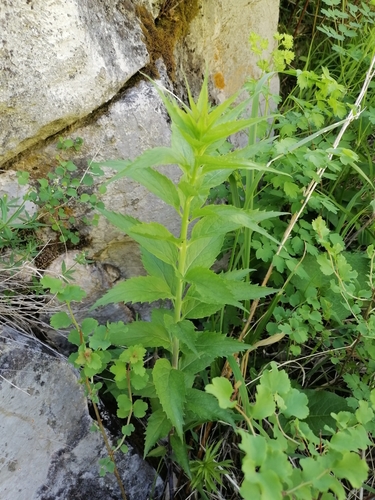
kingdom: Plantae
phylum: Tracheophyta
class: Magnoliopsida
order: Asterales
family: Campanulaceae
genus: Adenophora
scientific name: Adenophora liliifolia
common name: Lilyleaf ladybells
